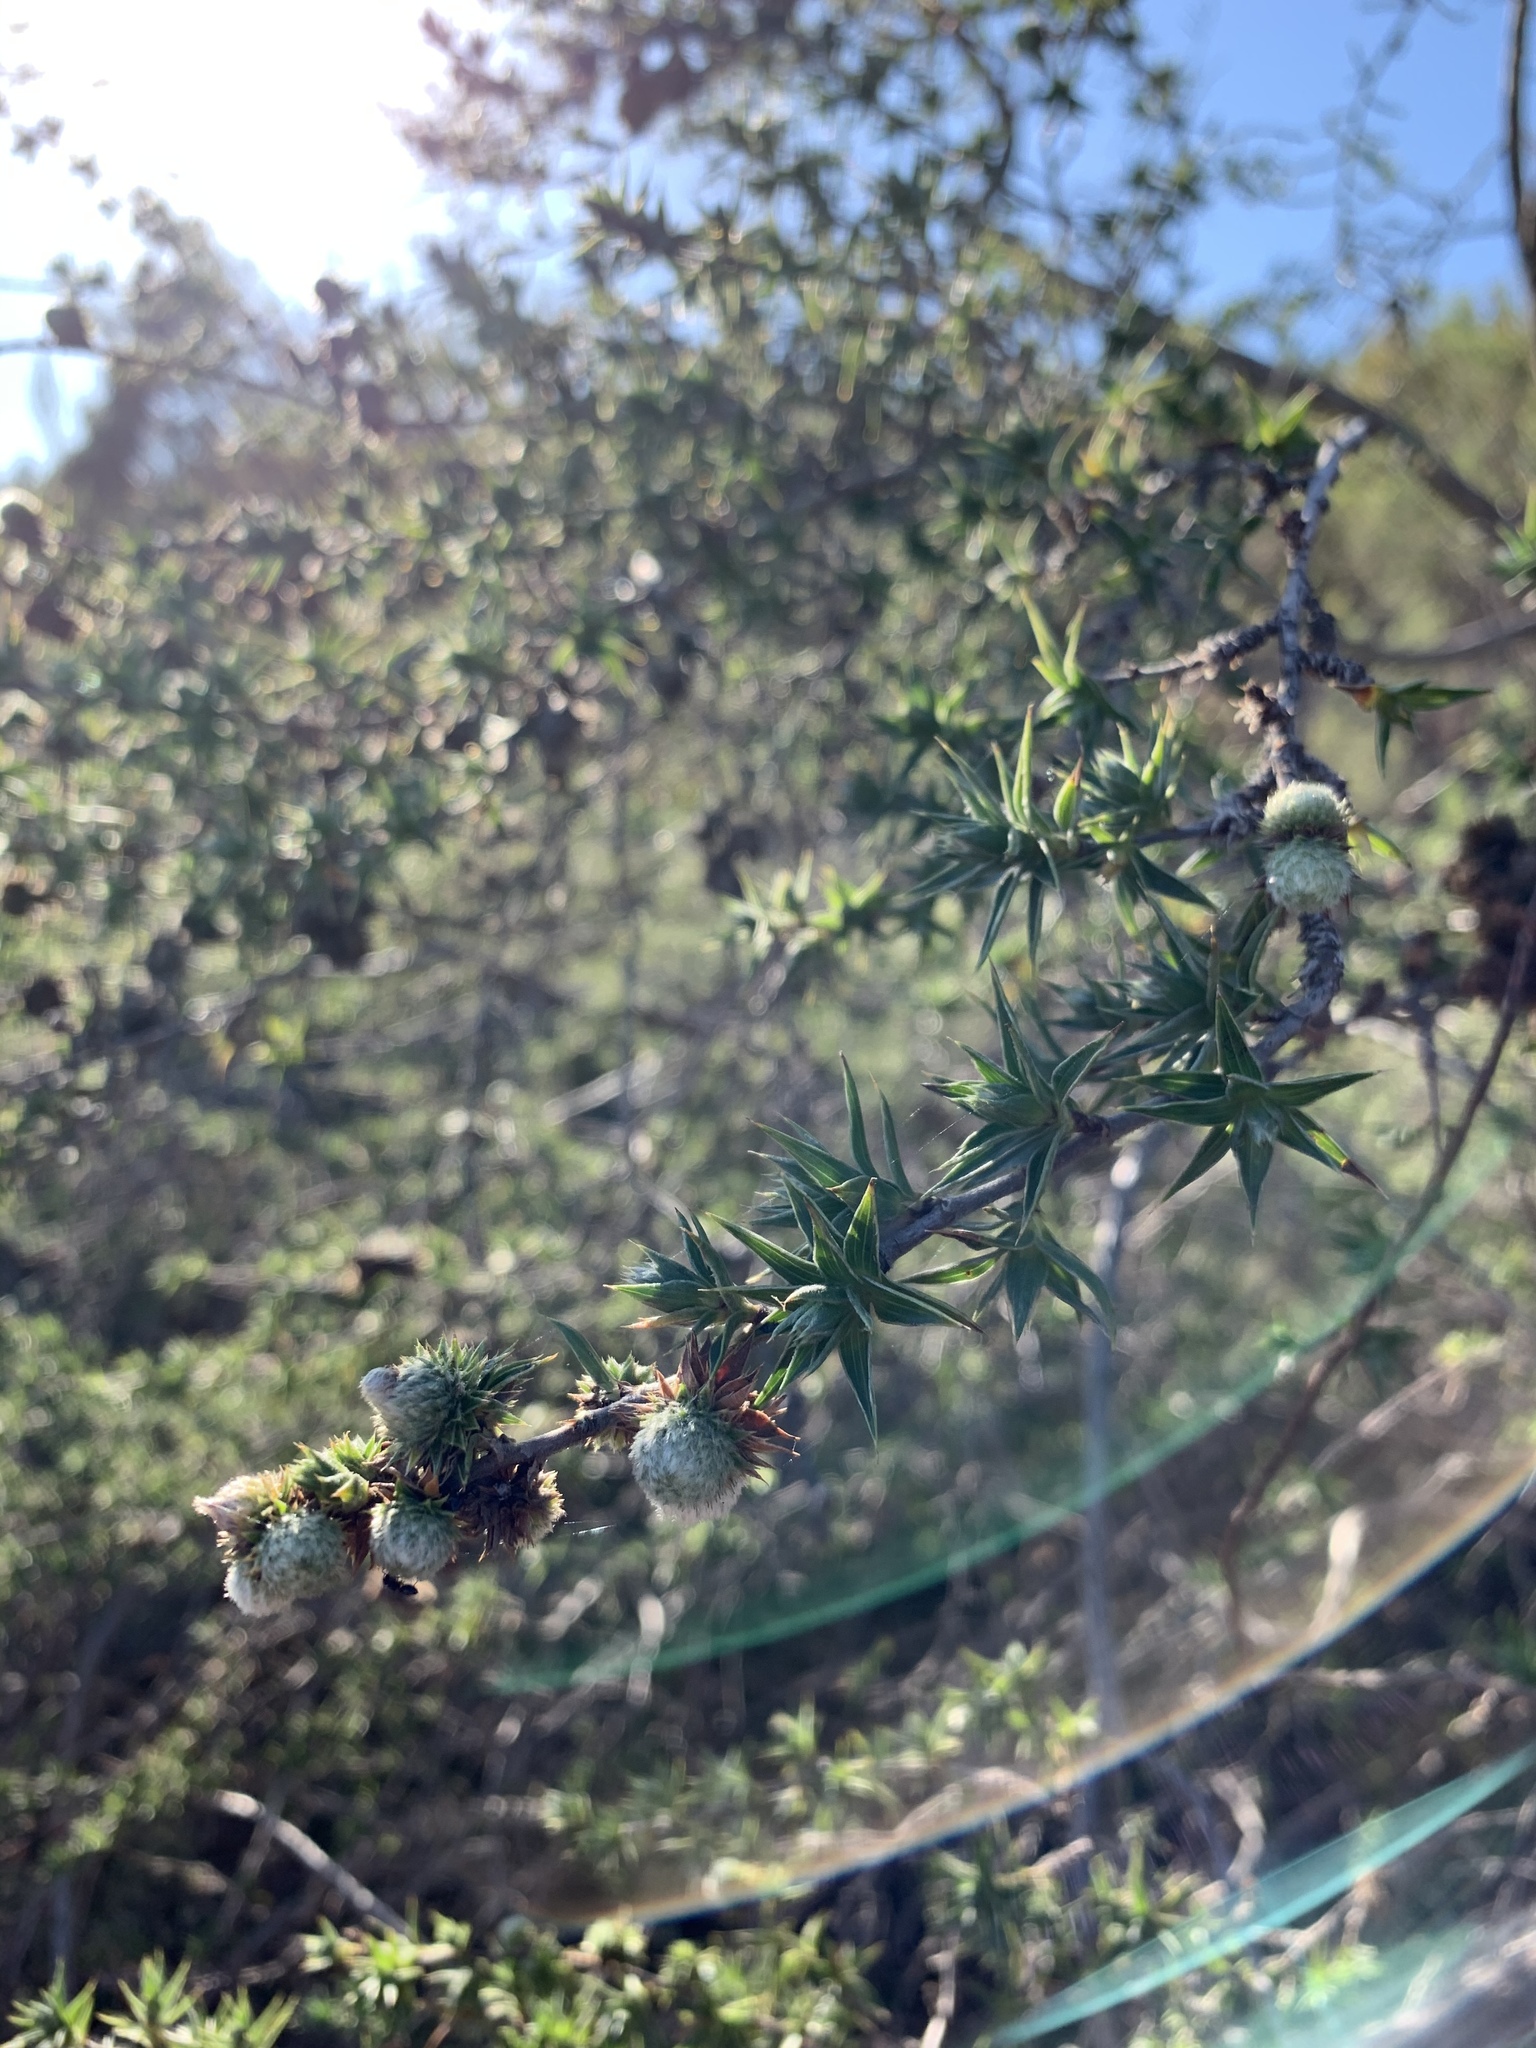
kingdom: Plantae
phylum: Tracheophyta
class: Magnoliopsida
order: Rosales
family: Rosaceae
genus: Cliffortia
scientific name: Cliffortia ruscifolia
